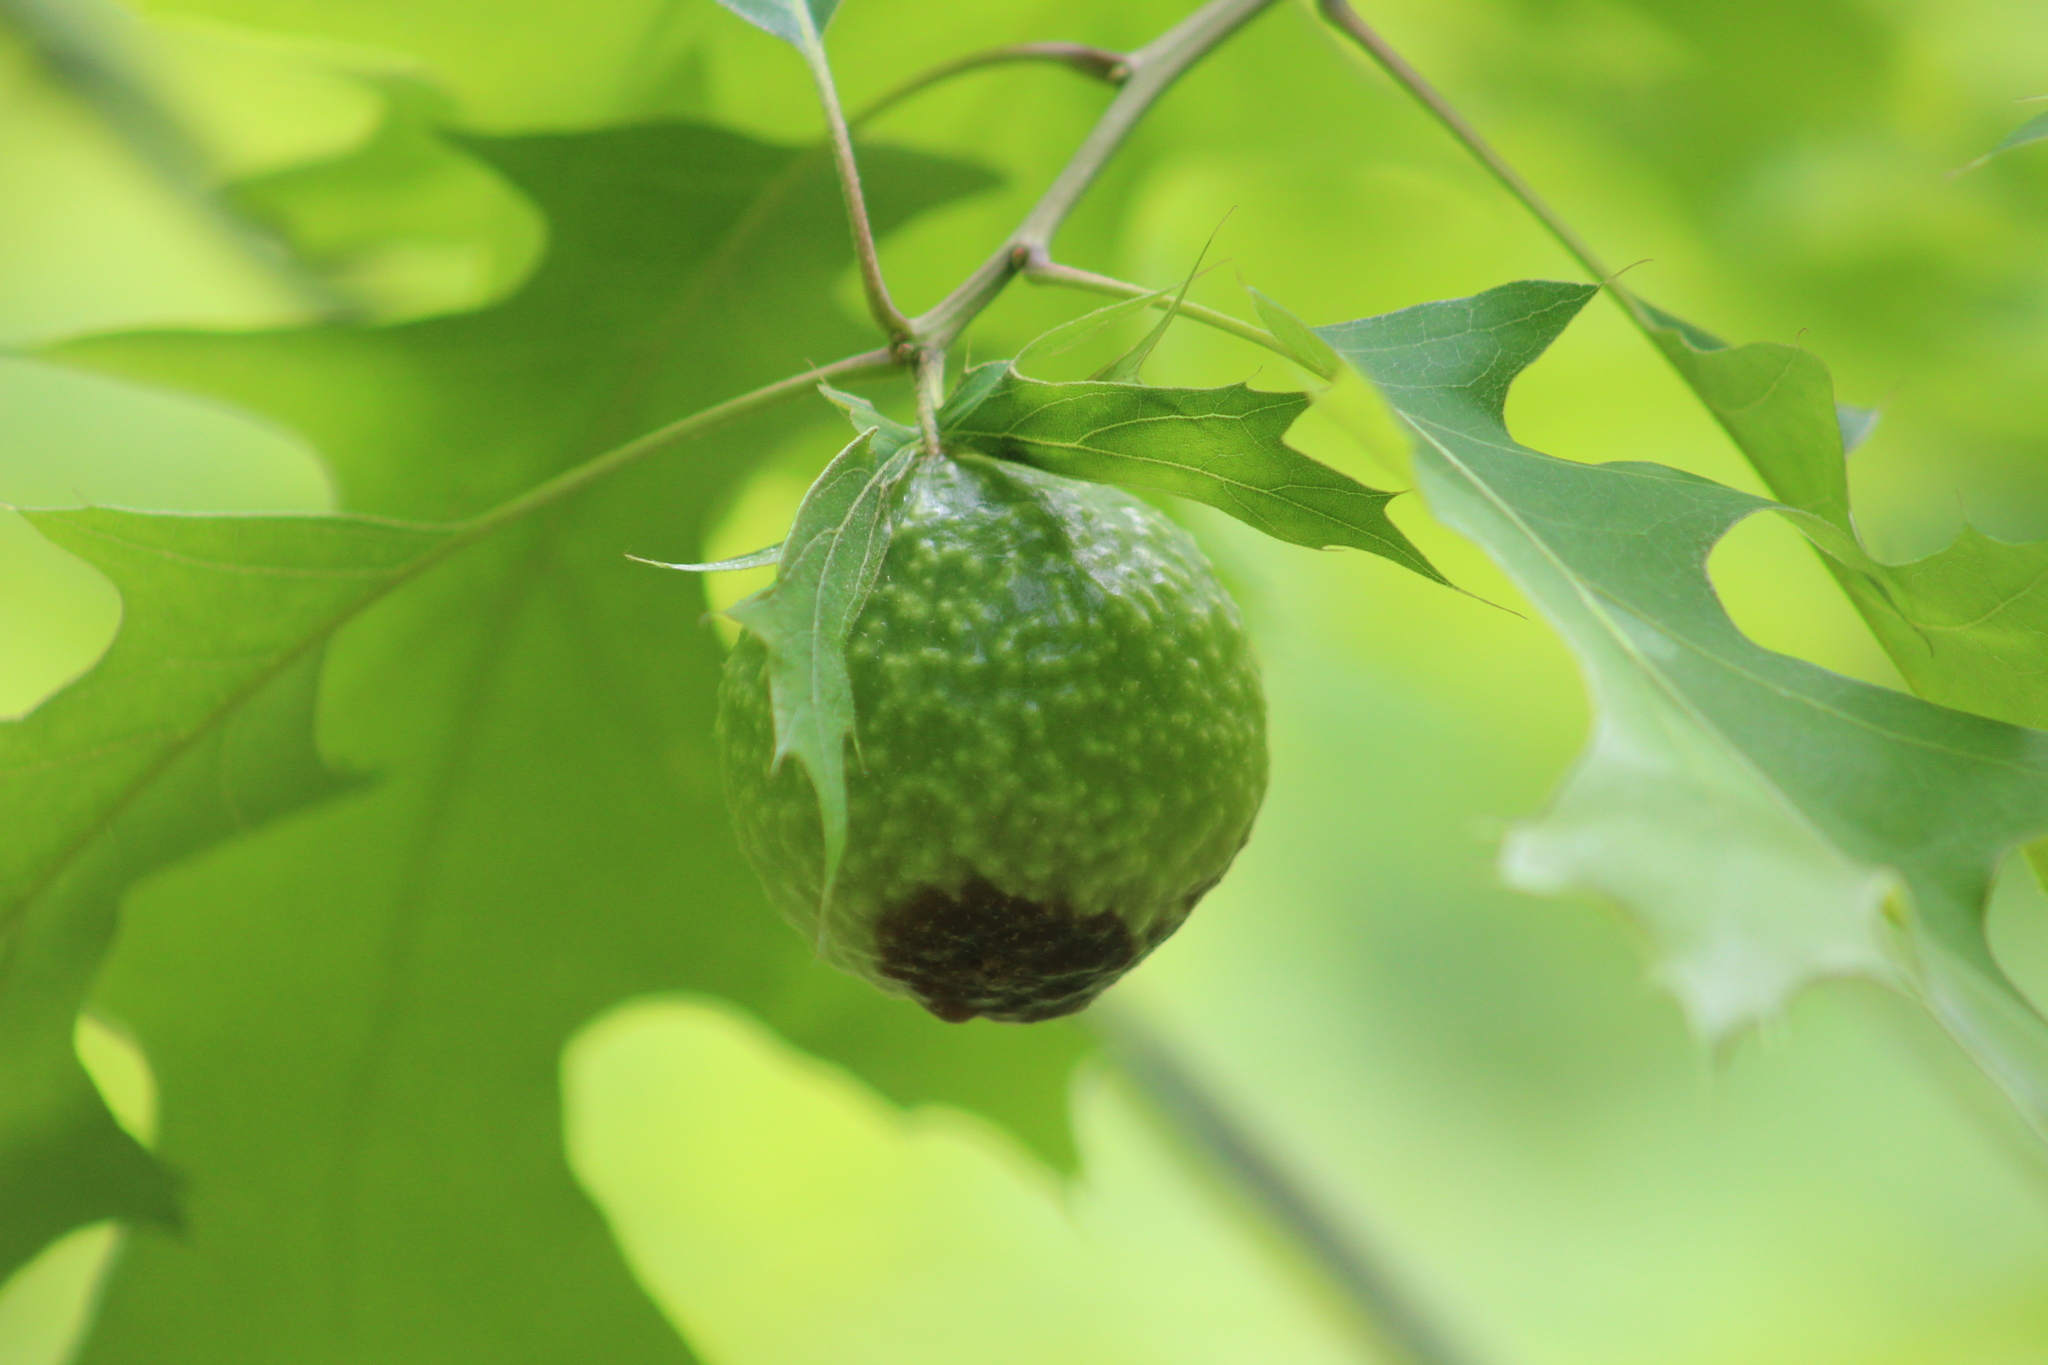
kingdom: Animalia
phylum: Arthropoda
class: Insecta
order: Hymenoptera
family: Cynipidae
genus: Amphibolips
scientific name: Amphibolips
